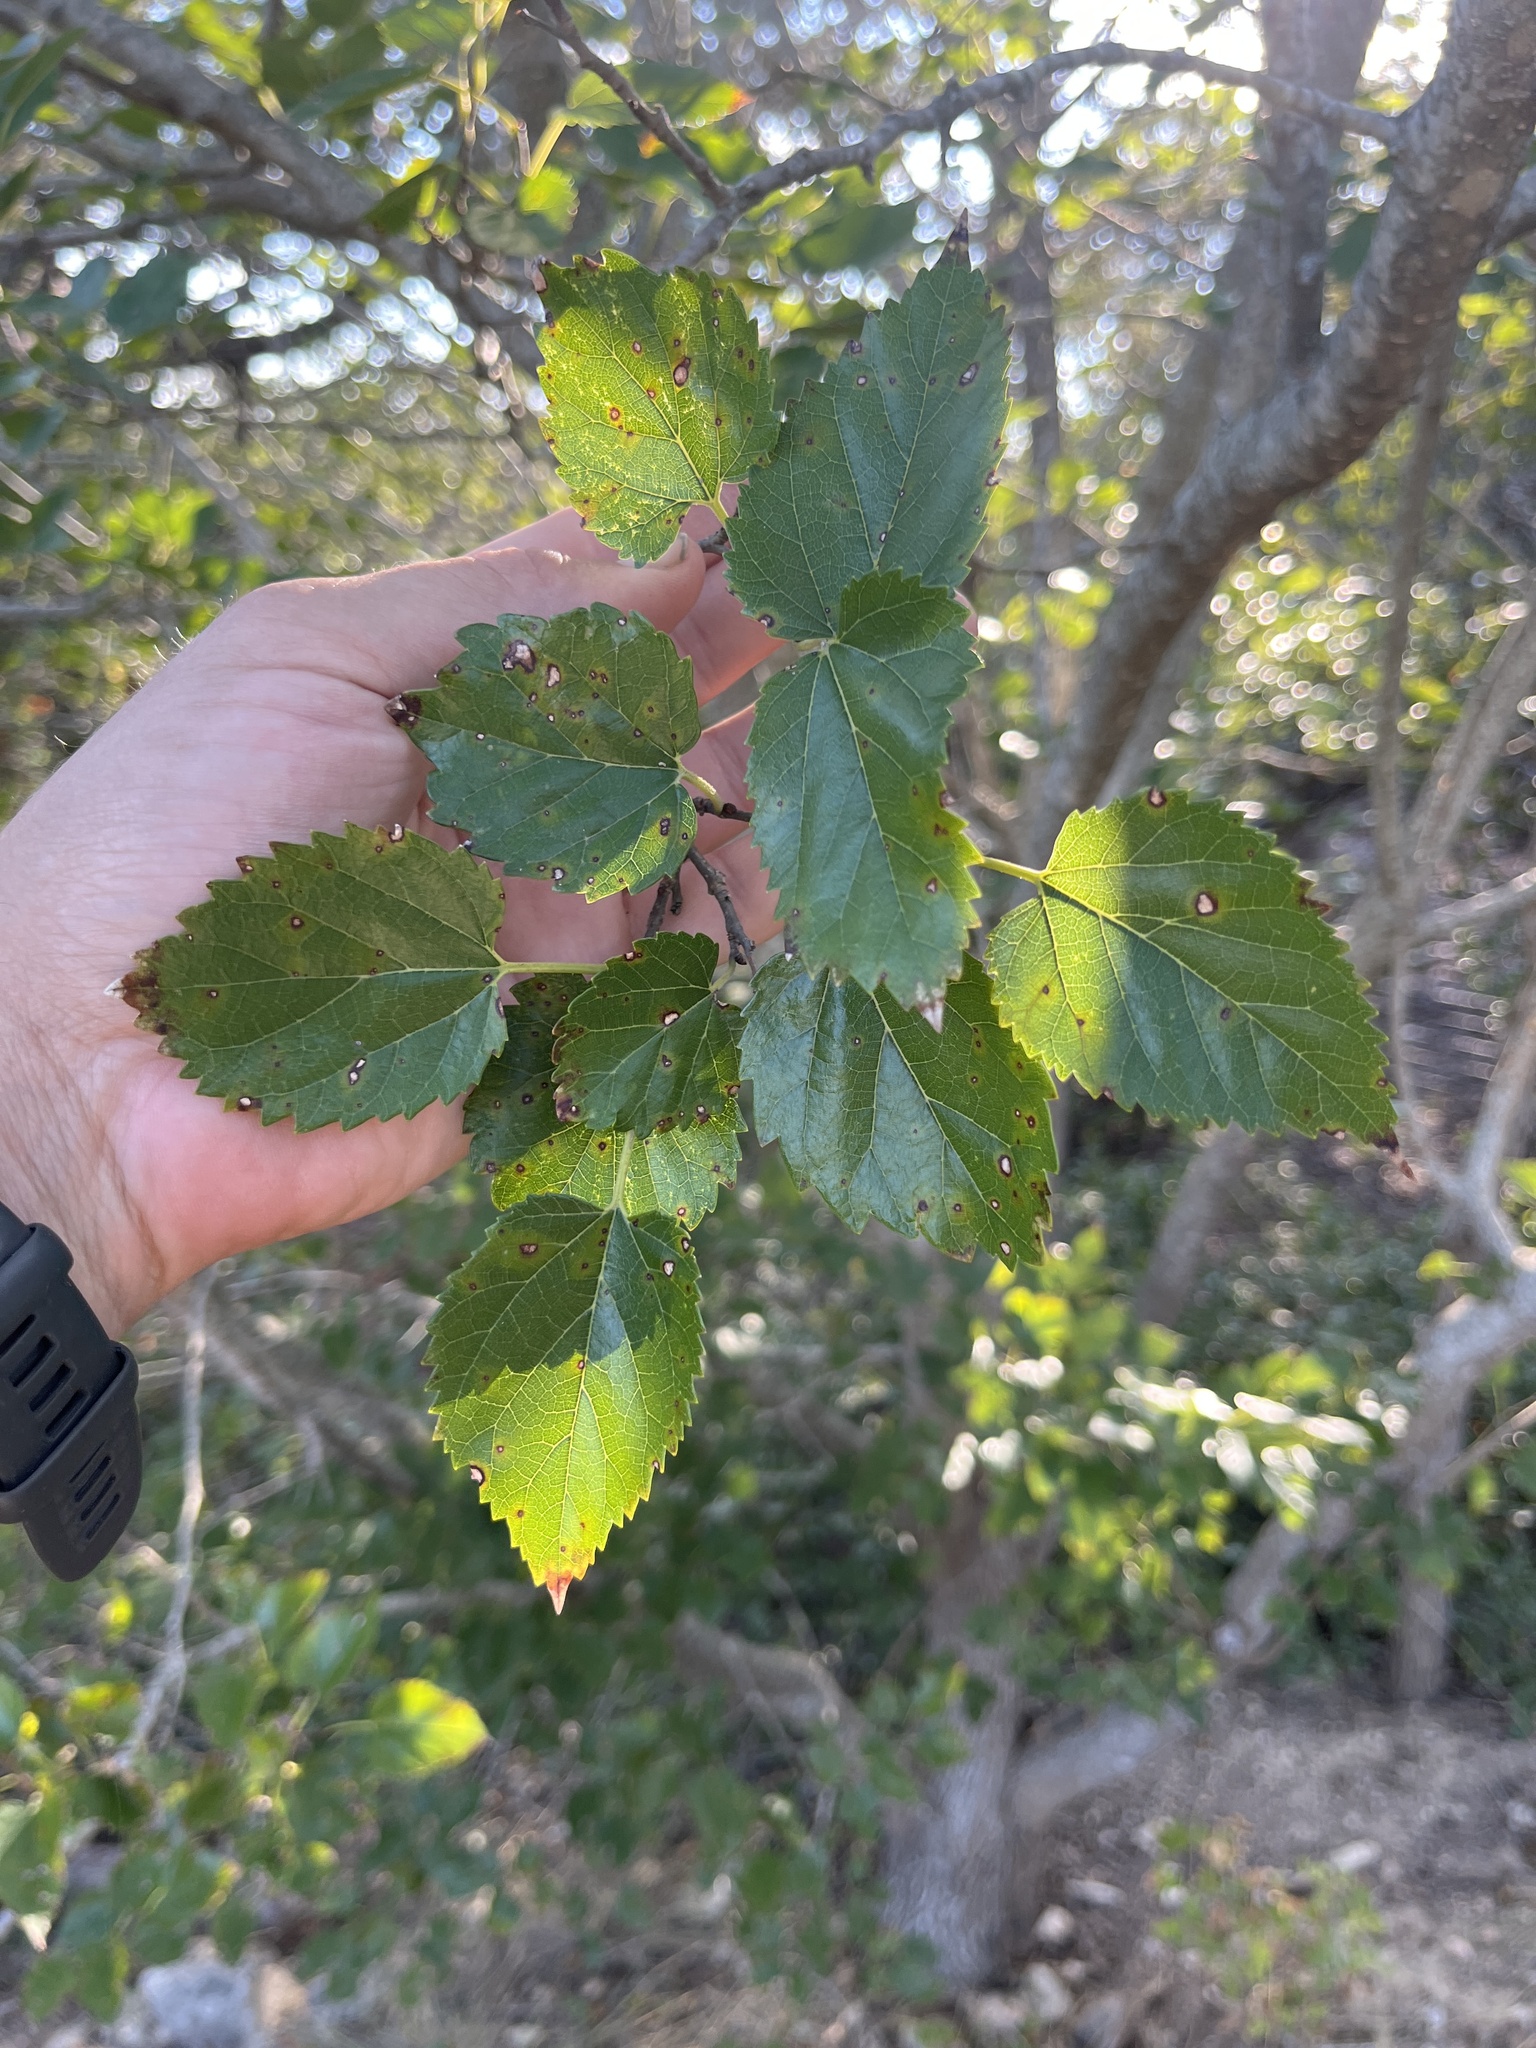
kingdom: Plantae
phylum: Tracheophyta
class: Magnoliopsida
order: Rosales
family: Moraceae
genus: Morus
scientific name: Morus microphylla
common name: Mexican mulberry
